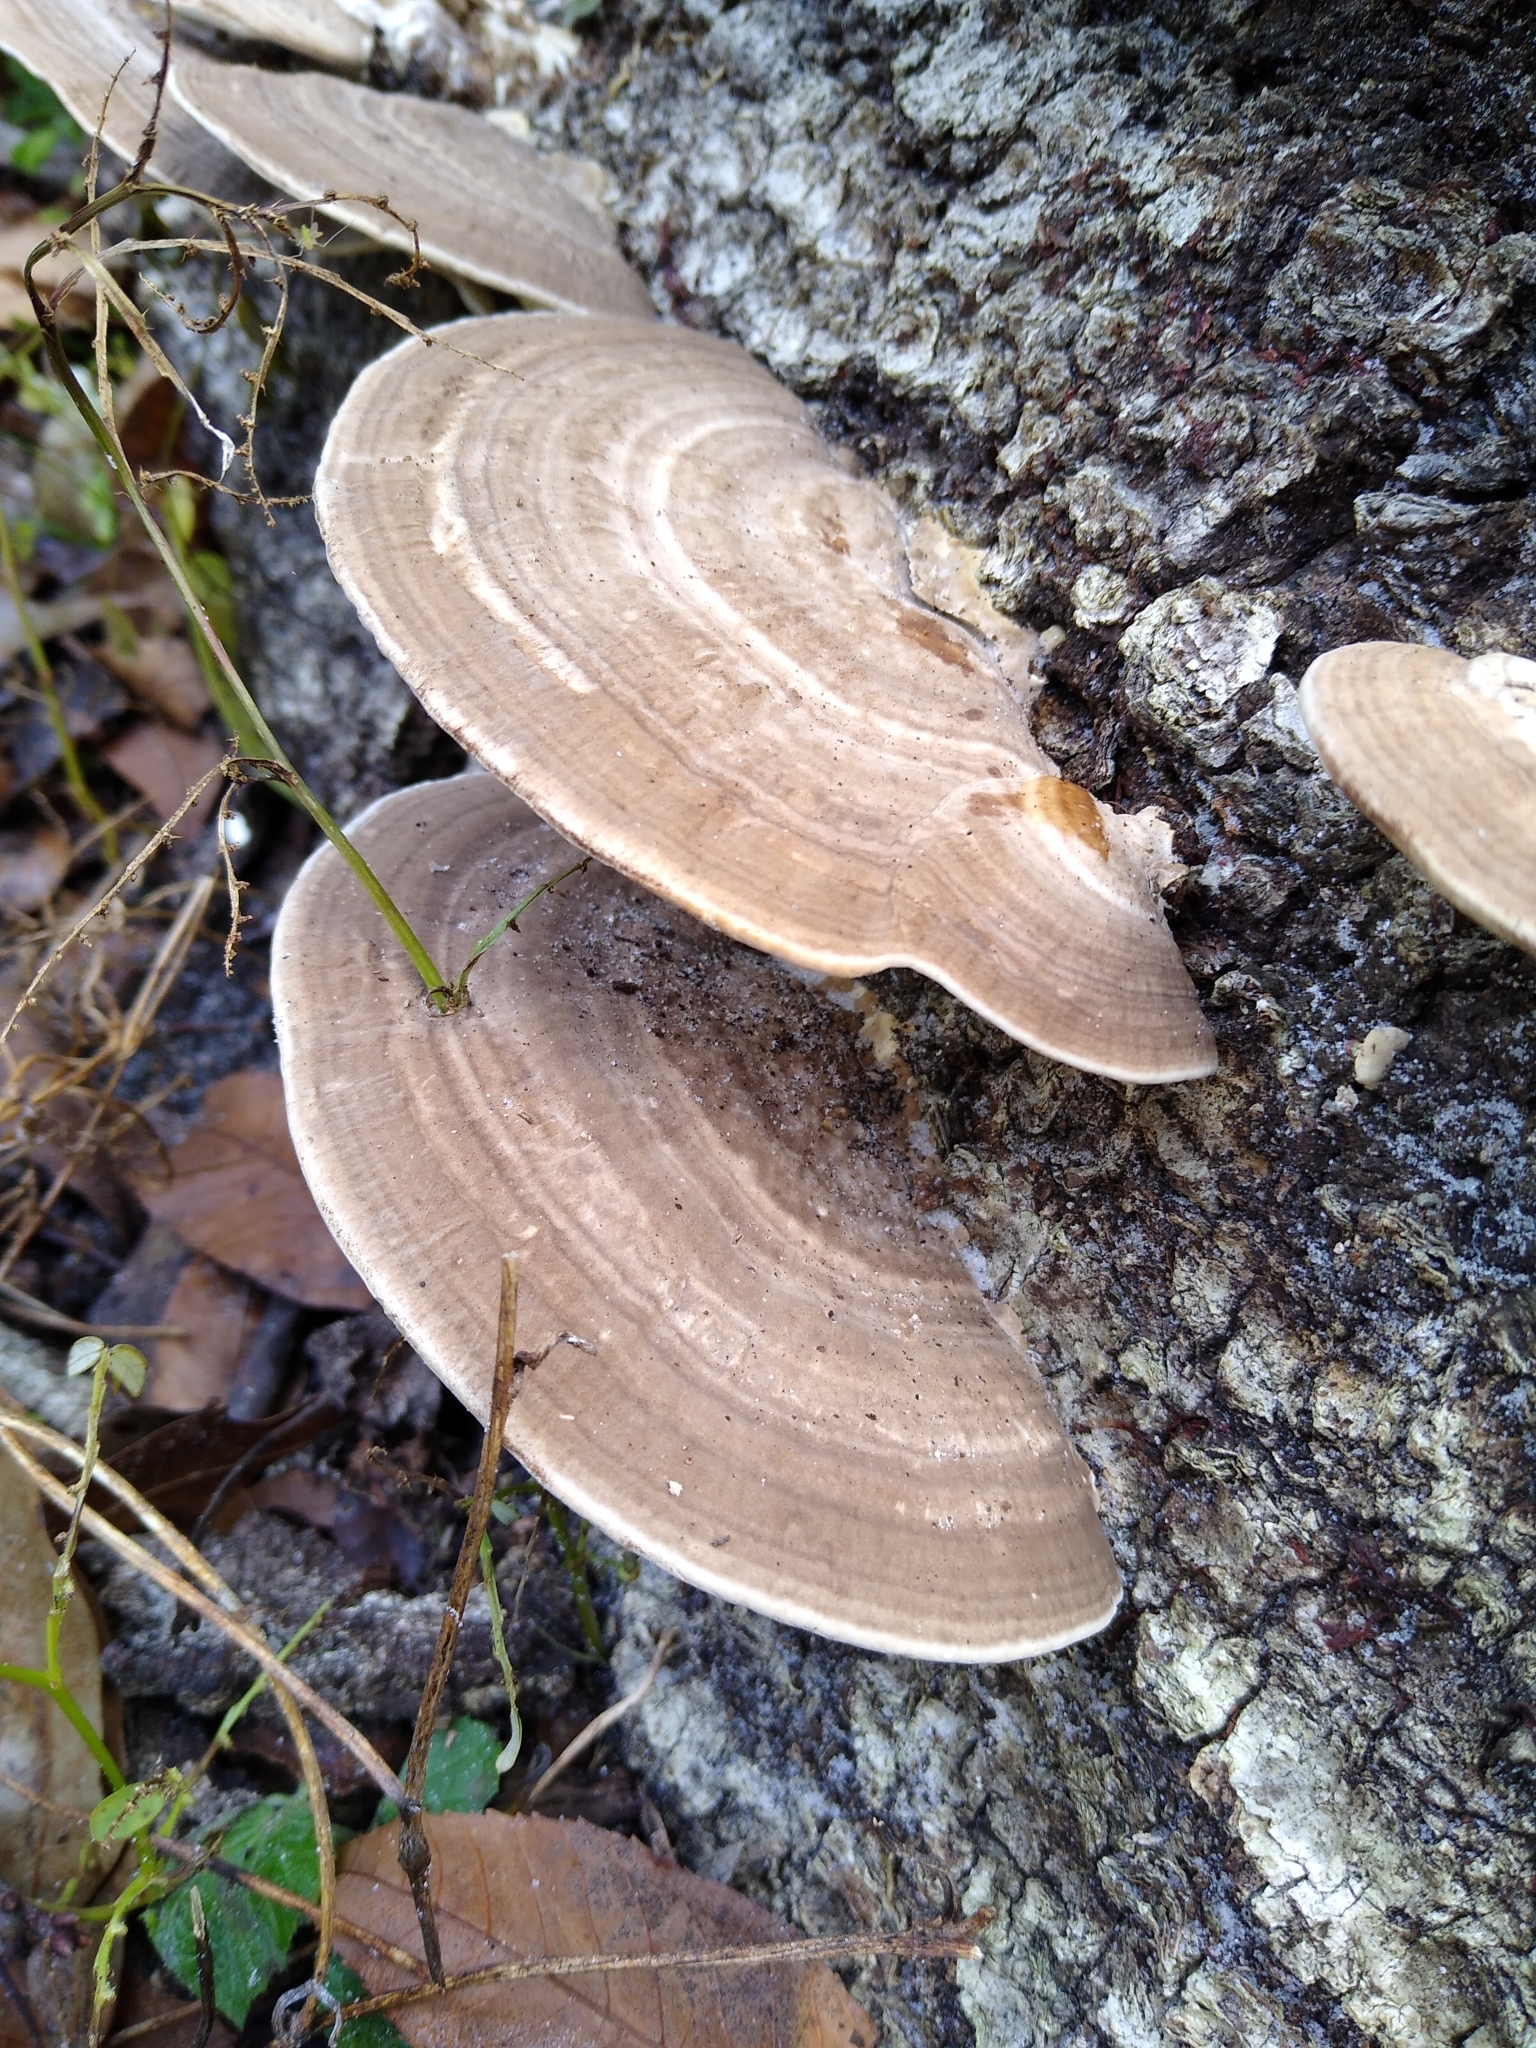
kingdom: Fungi
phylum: Basidiomycota
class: Agaricomycetes
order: Polyporales
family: Polyporaceae
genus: Trametes
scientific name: Trametes lactinea
